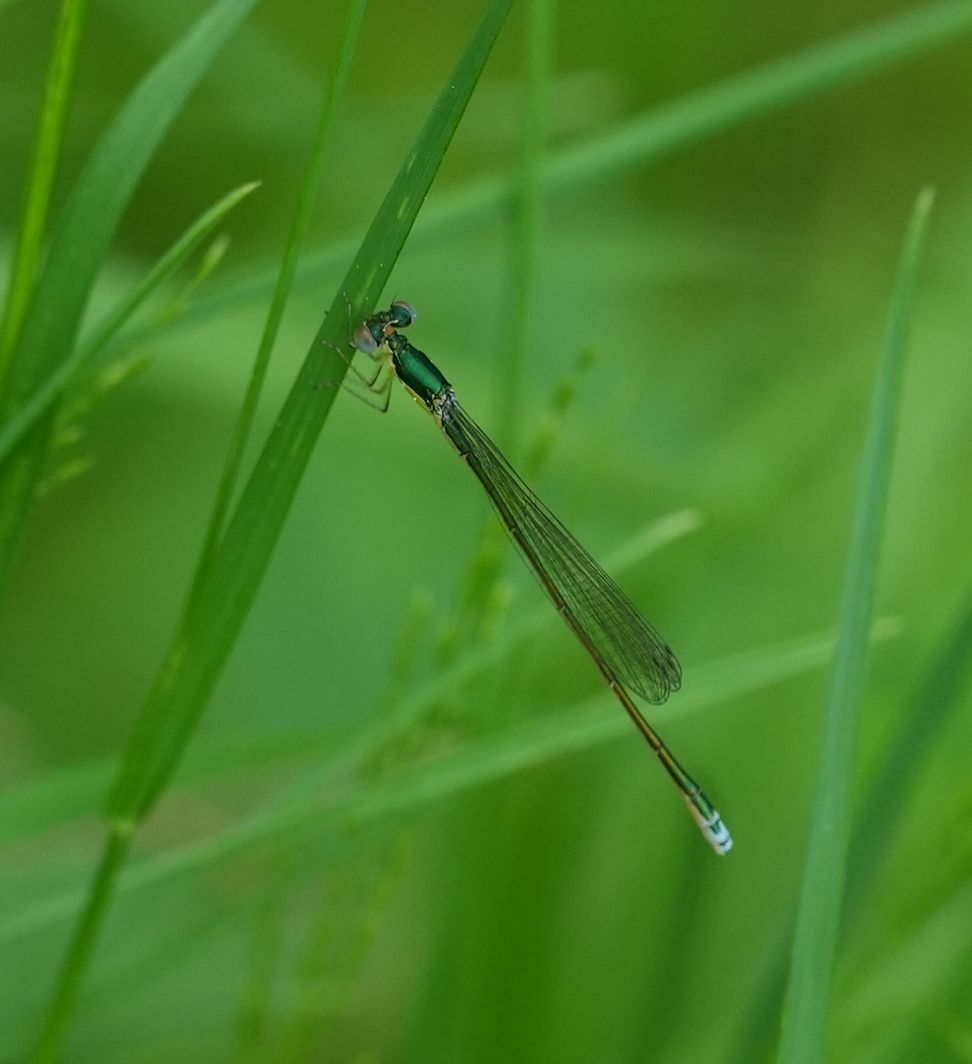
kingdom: Animalia
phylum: Arthropoda
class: Insecta
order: Odonata
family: Coenagrionidae
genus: Nehalennia
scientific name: Nehalennia irene
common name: Sedge sprite
